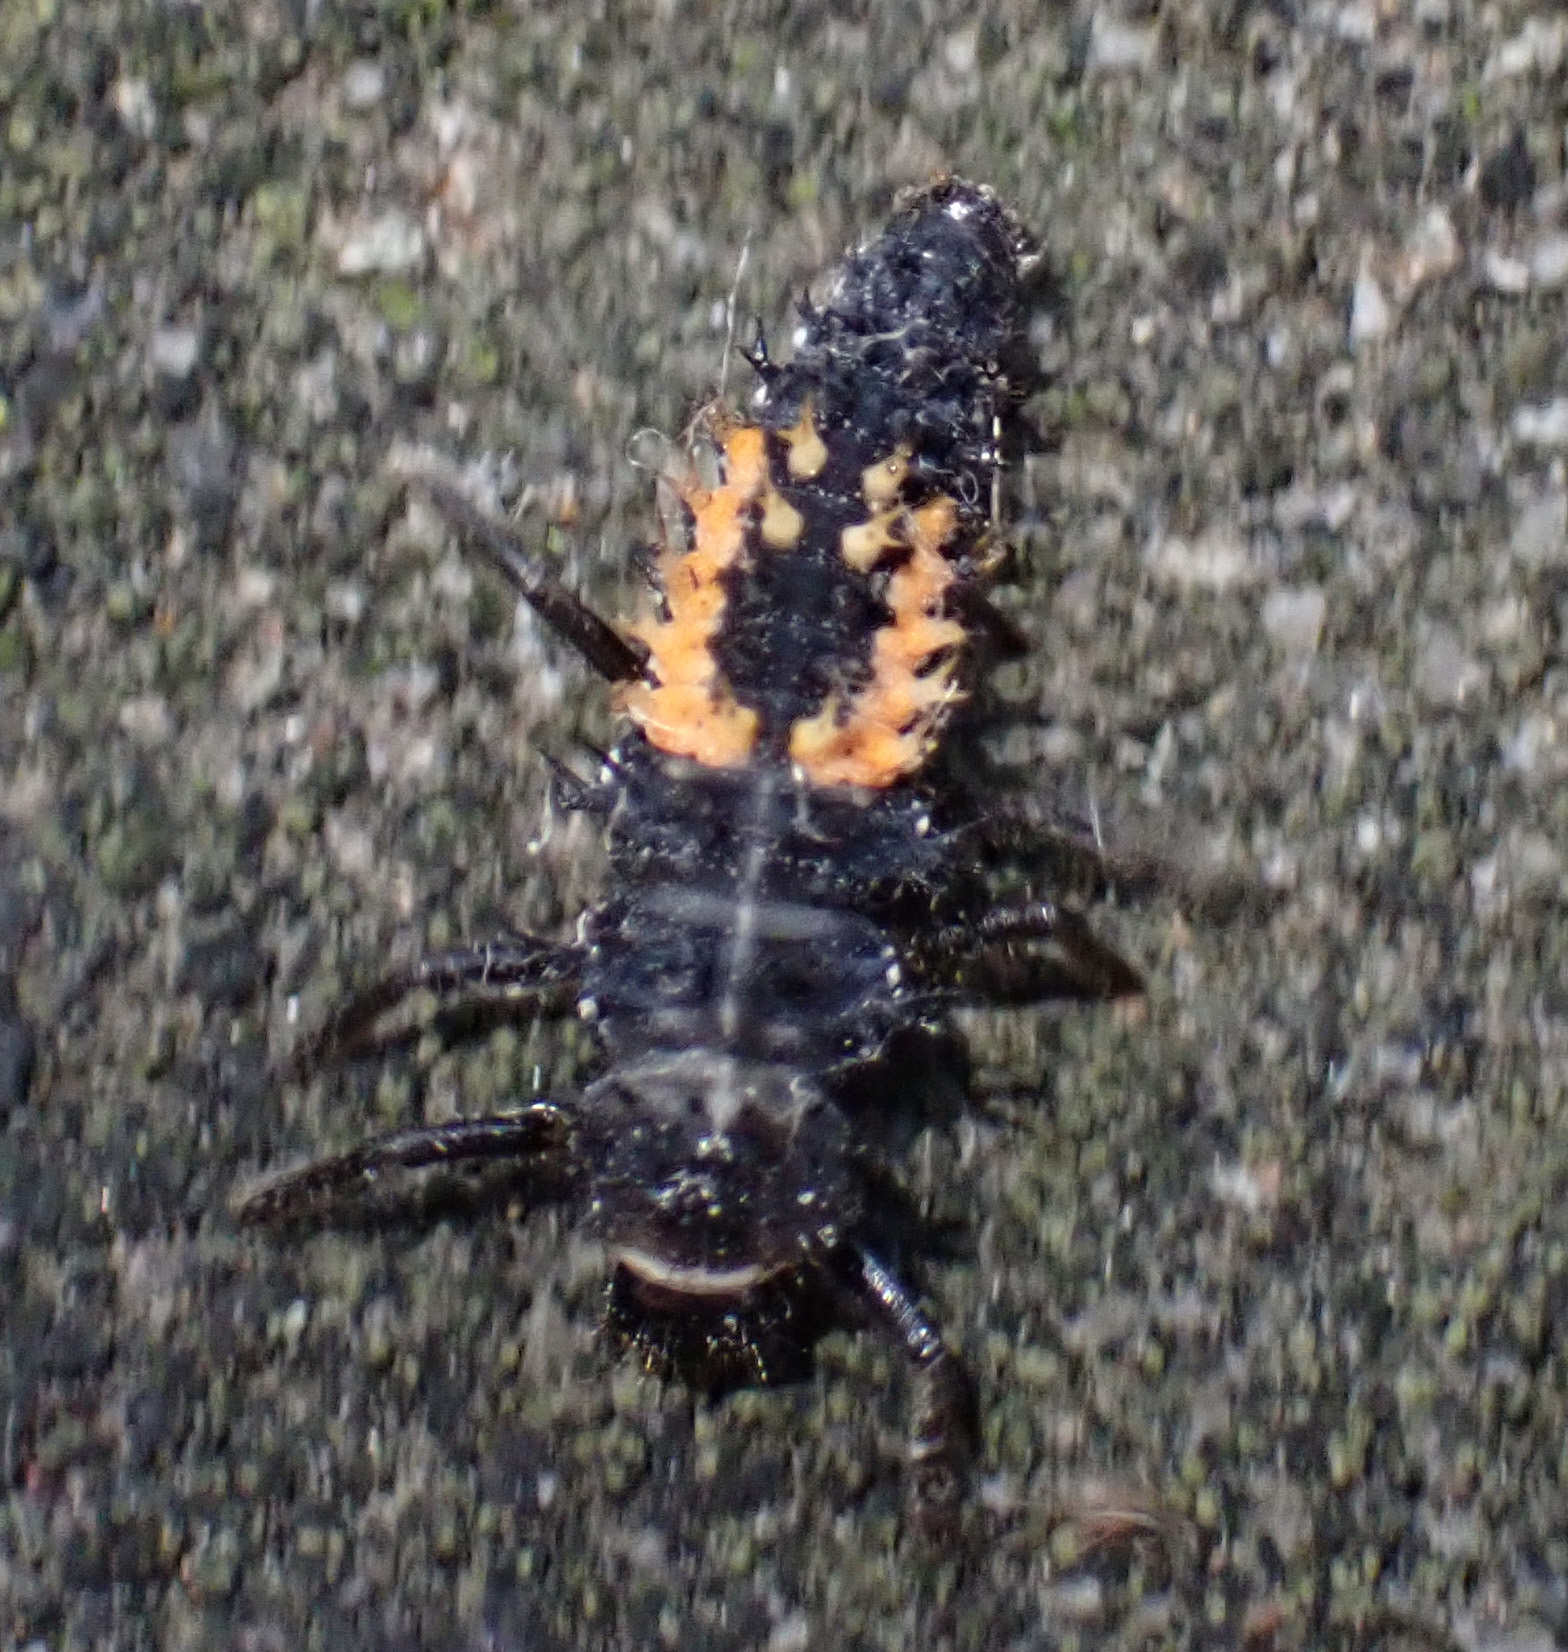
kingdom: Animalia
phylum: Arthropoda
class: Insecta
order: Coleoptera
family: Coccinellidae
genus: Harmonia
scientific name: Harmonia axyridis
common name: Harlequin ladybird
